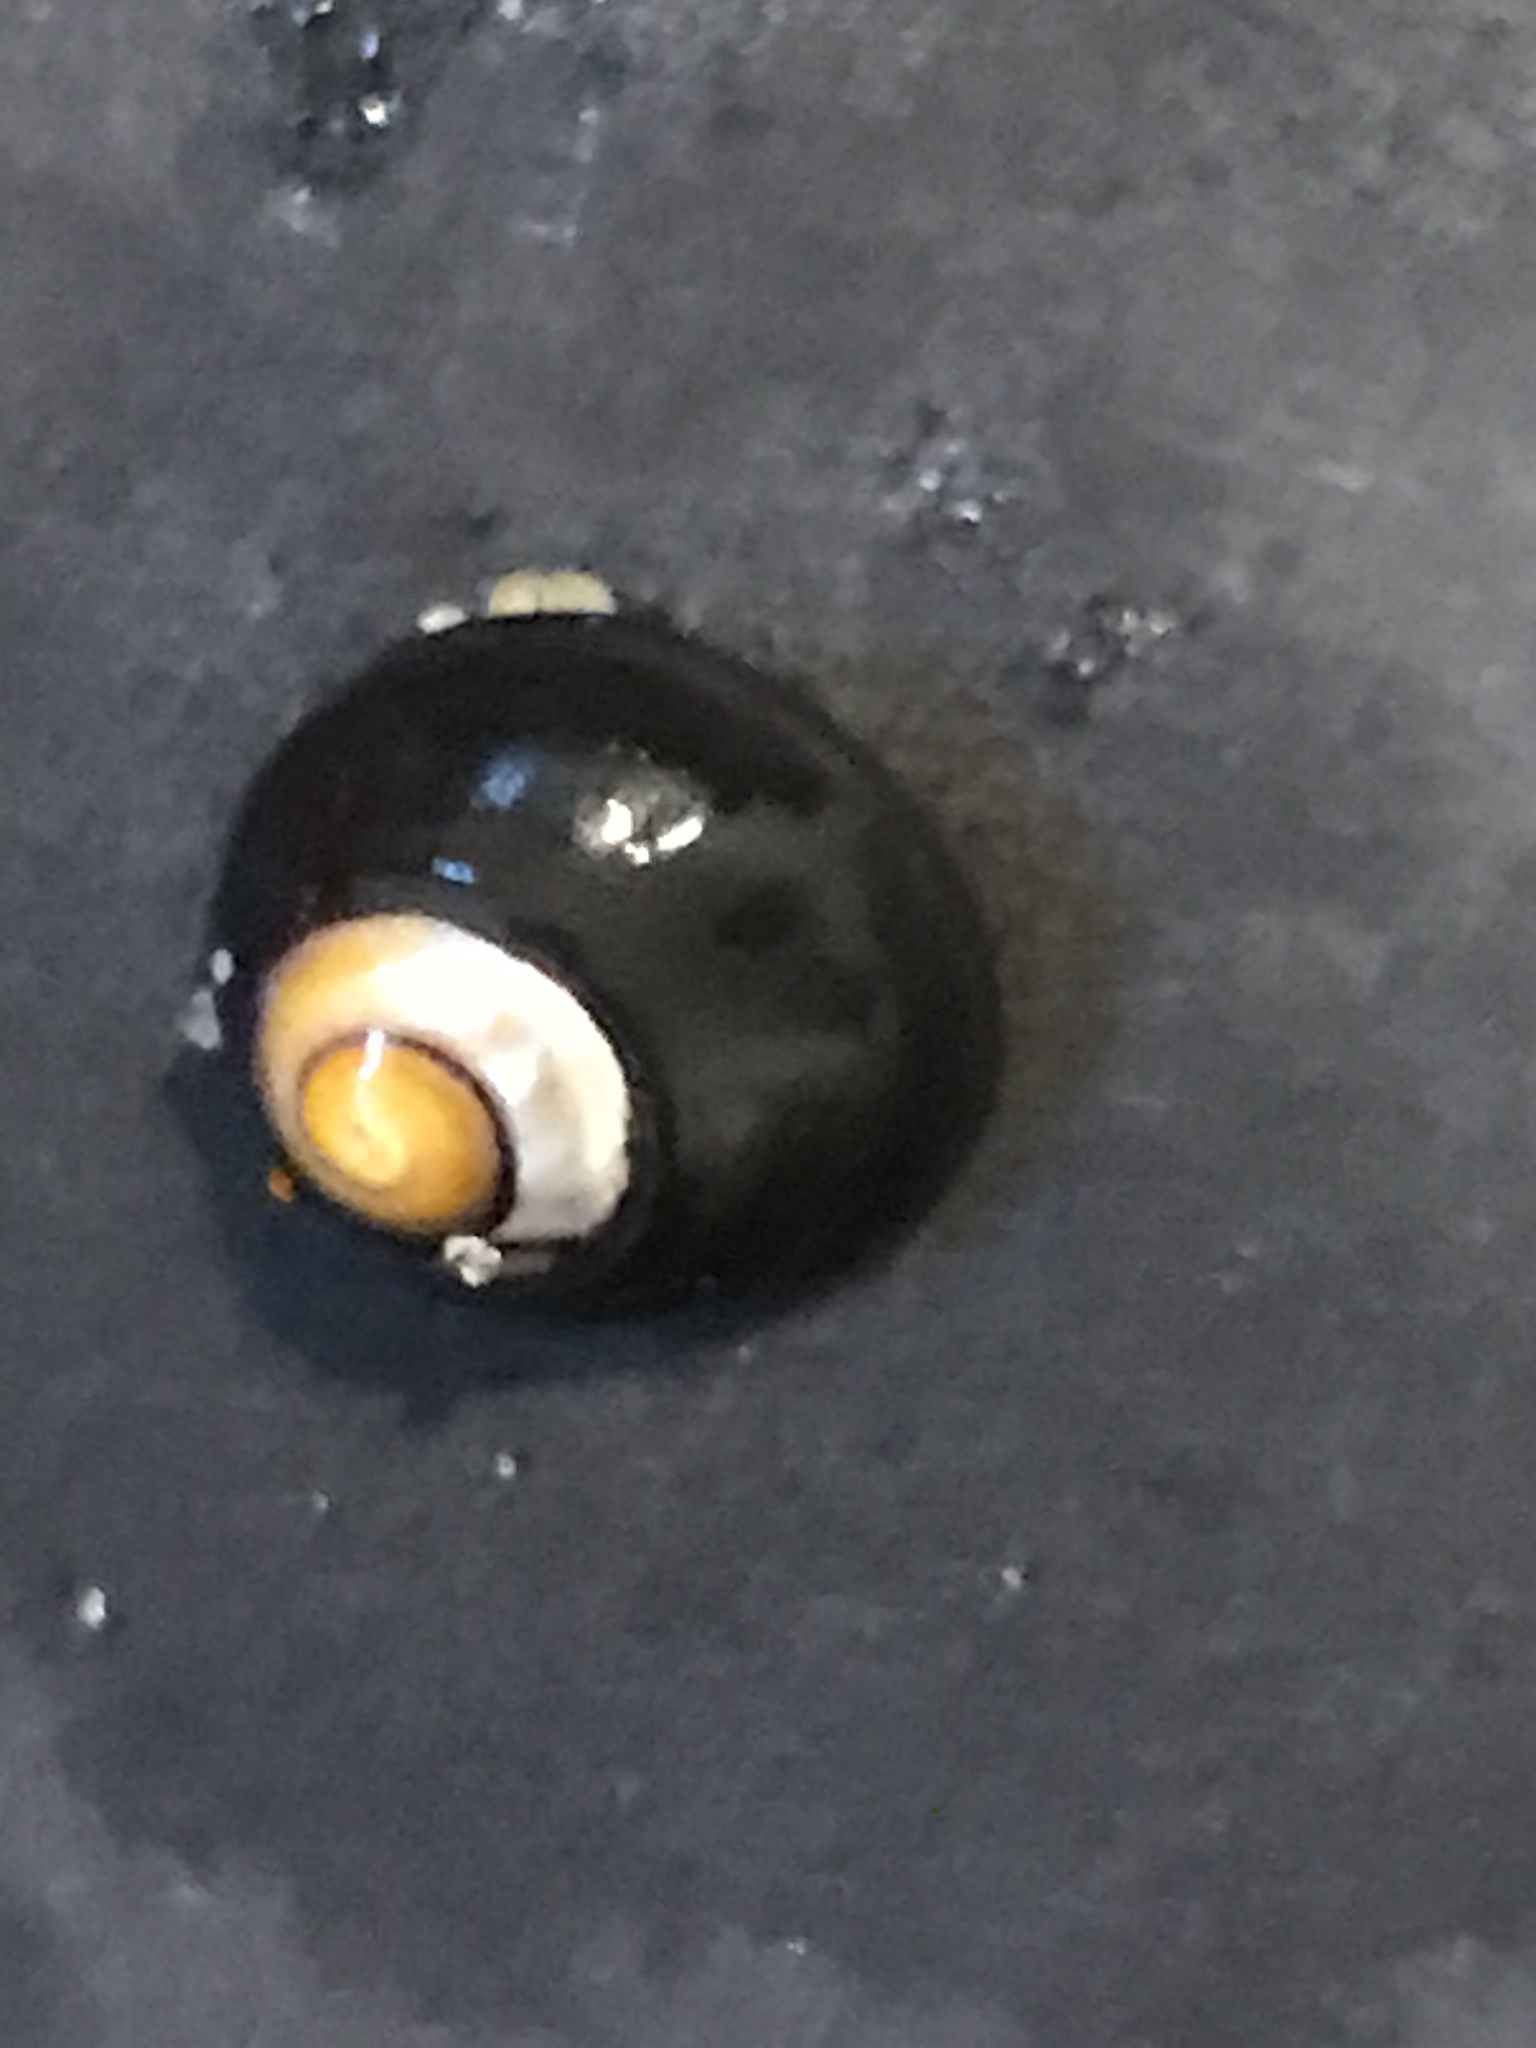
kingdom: Animalia
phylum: Mollusca
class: Gastropoda
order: Trochida
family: Tegulidae
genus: Tegula
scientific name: Tegula funebralis
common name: Black tegula
